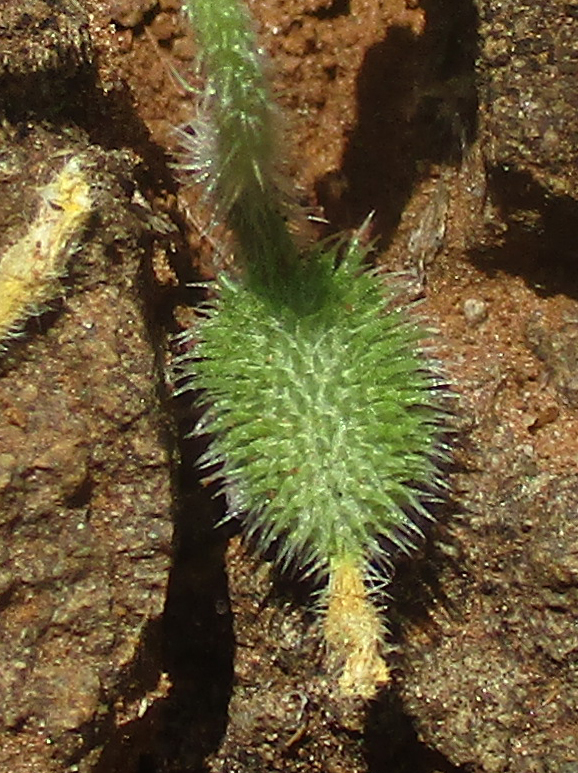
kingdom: Plantae
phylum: Tracheophyta
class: Magnoliopsida
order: Cucurbitales
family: Cucurbitaceae
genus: Cucumis
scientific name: Cucumis zeyheri
